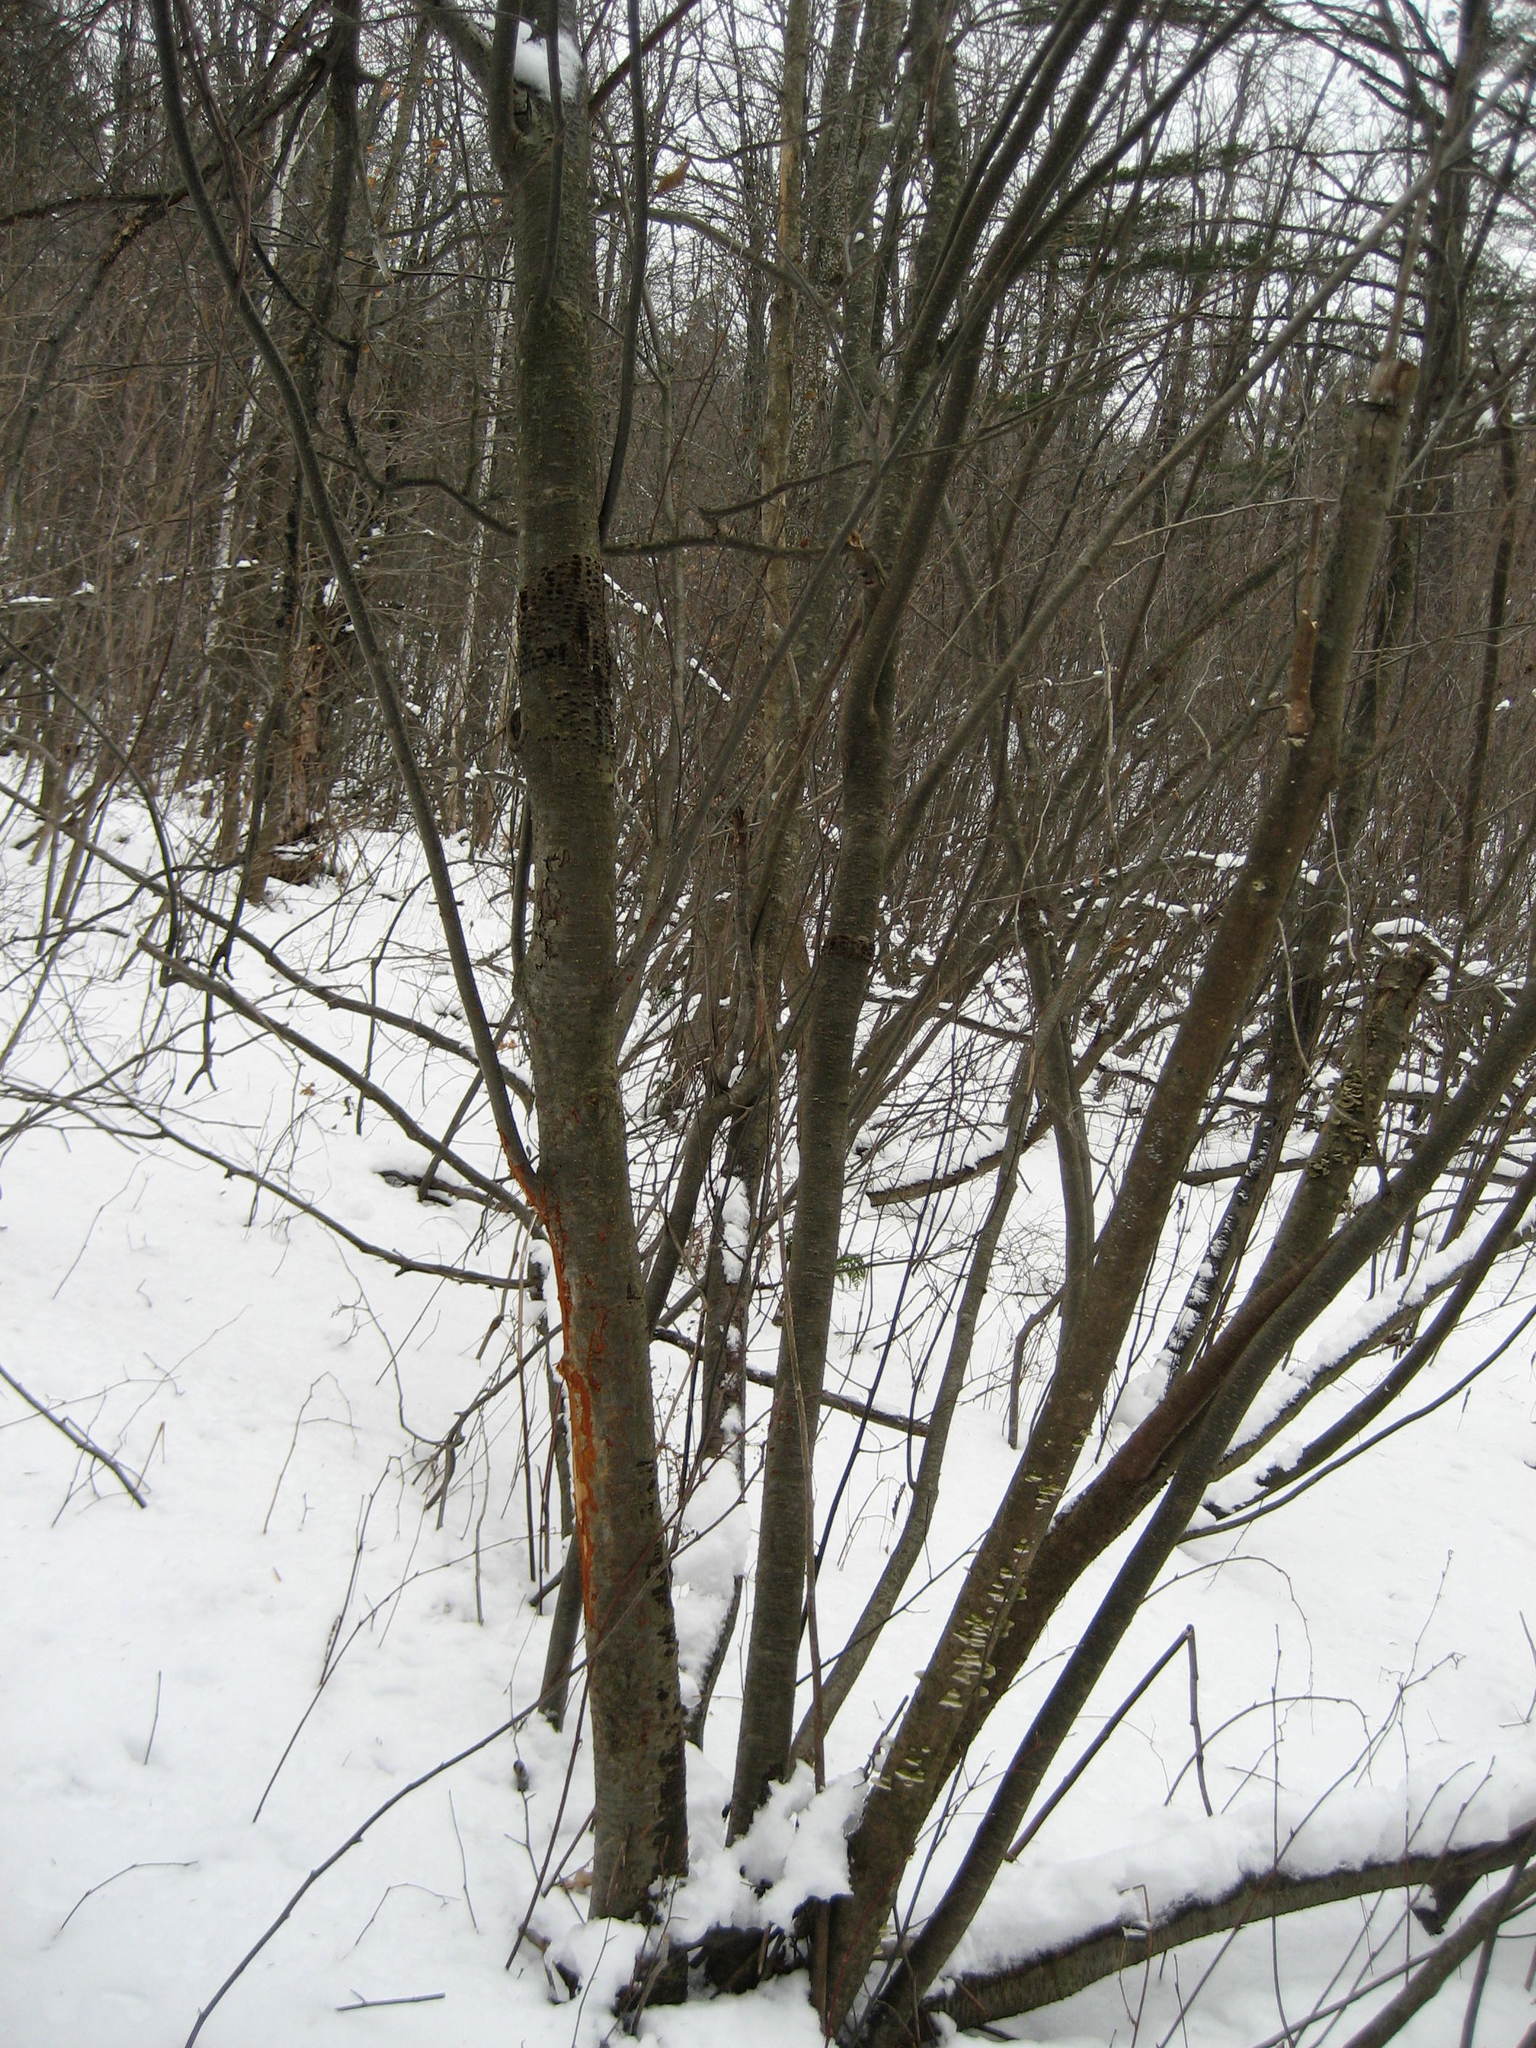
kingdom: Plantae
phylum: Tracheophyta
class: Magnoliopsida
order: Fagales
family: Betulaceae
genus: Alnus
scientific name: Alnus incana
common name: Grey alder
